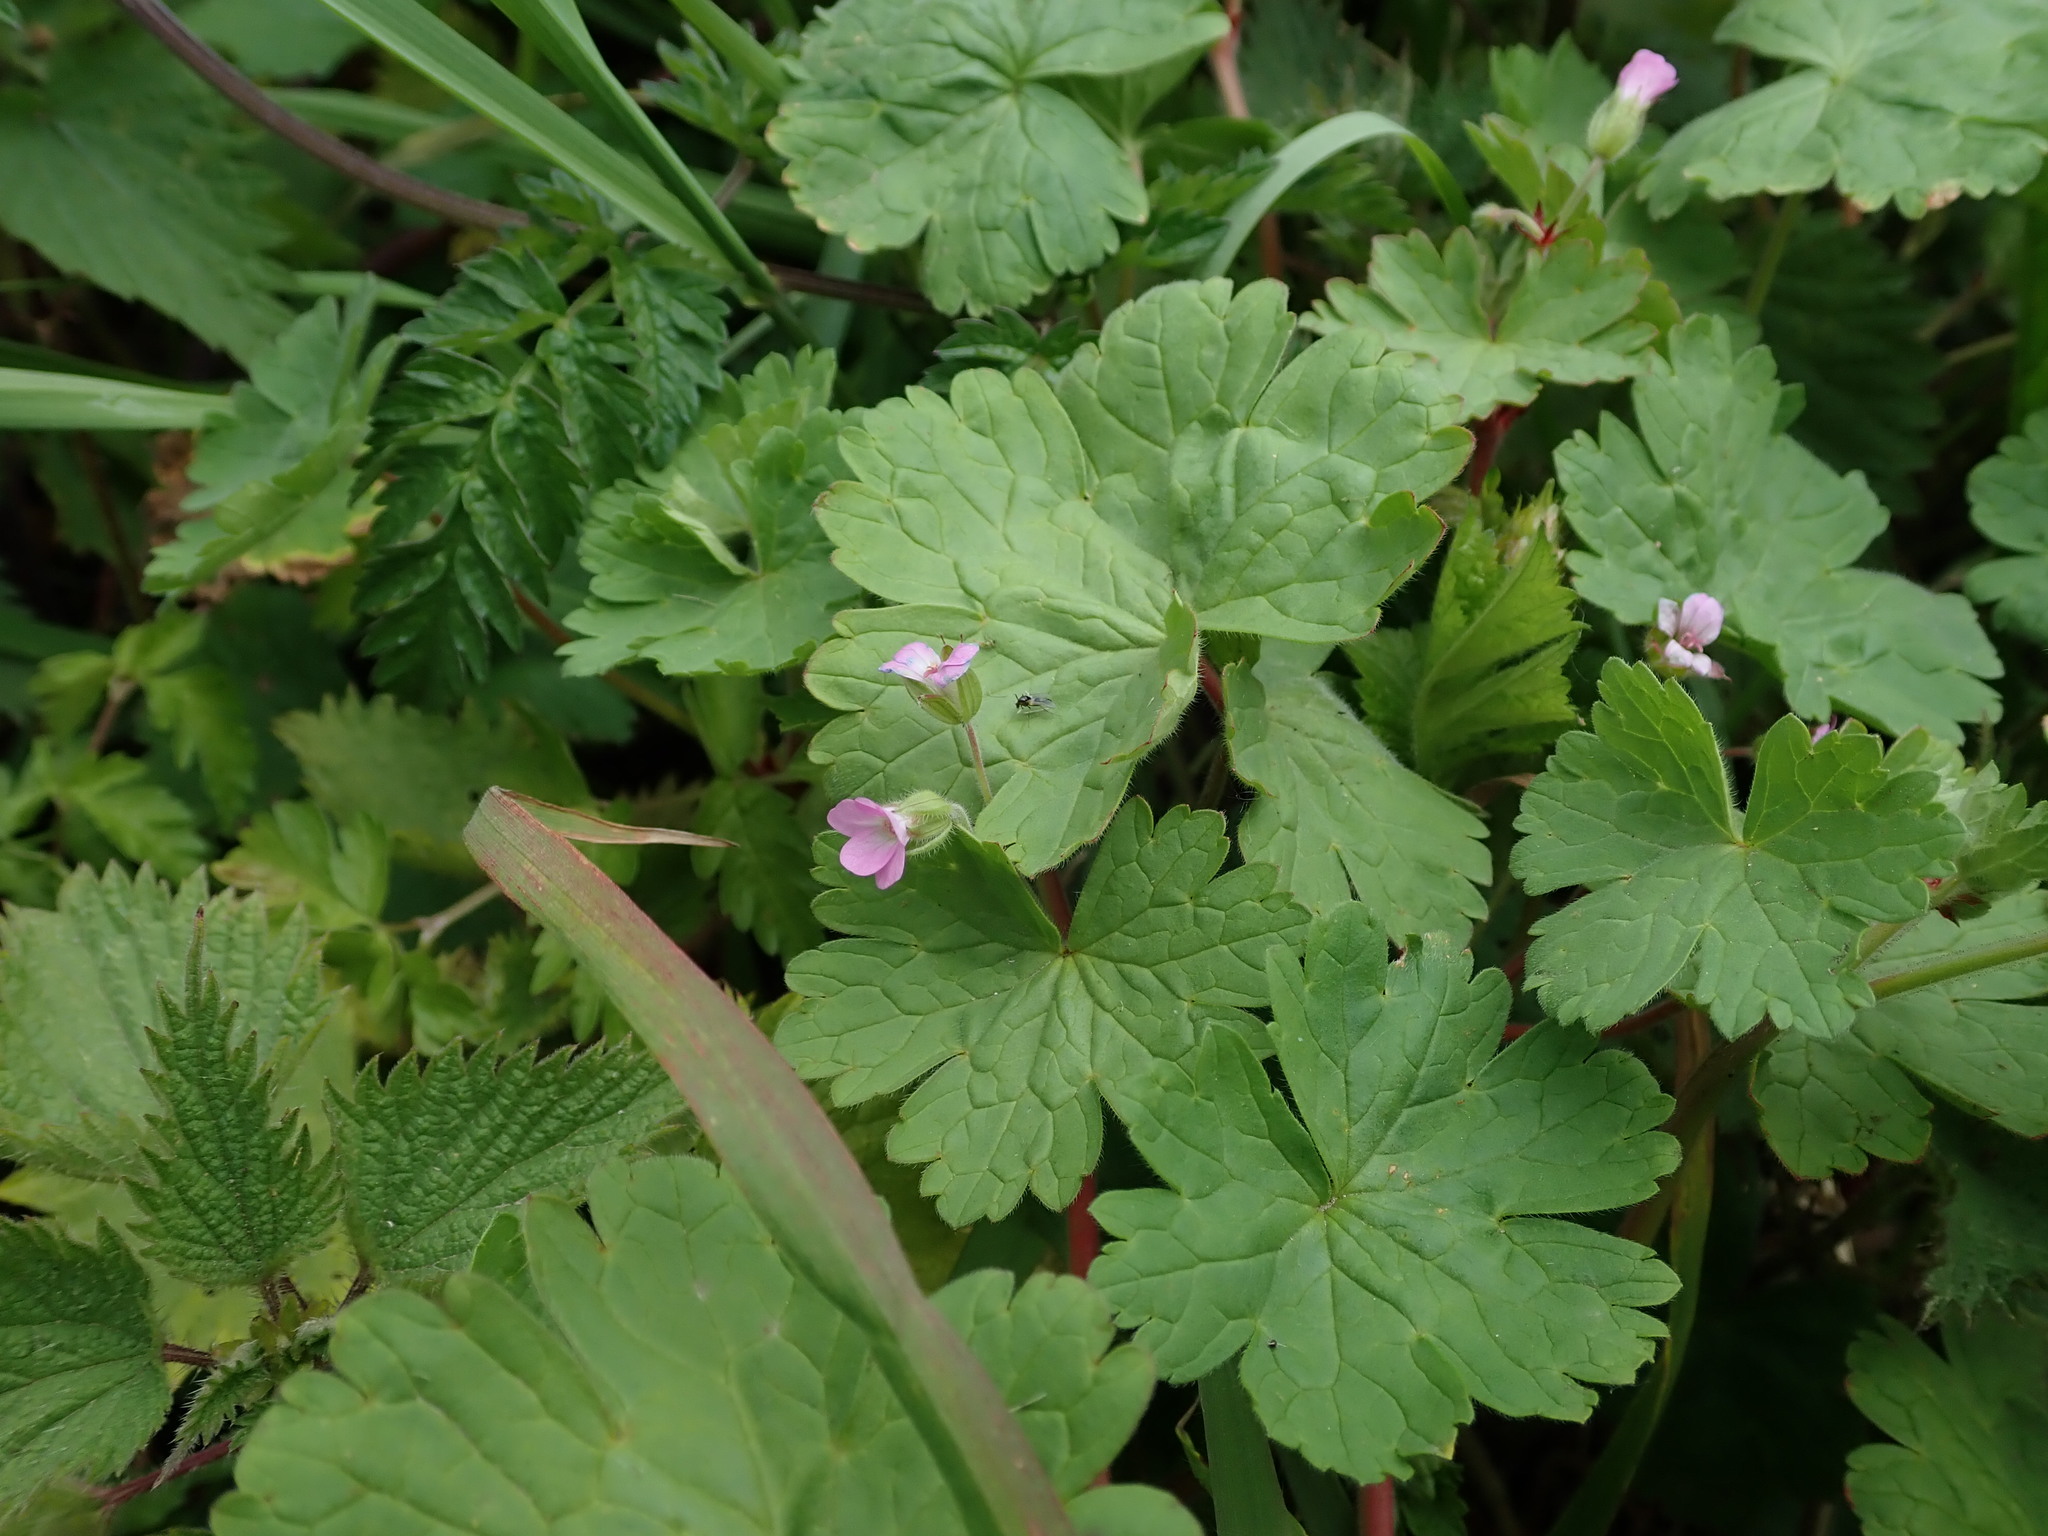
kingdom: Plantae
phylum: Tracheophyta
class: Magnoliopsida
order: Geraniales
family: Geraniaceae
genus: Geranium
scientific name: Geranium rotundifolium
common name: Round-leaved crane's-bill
